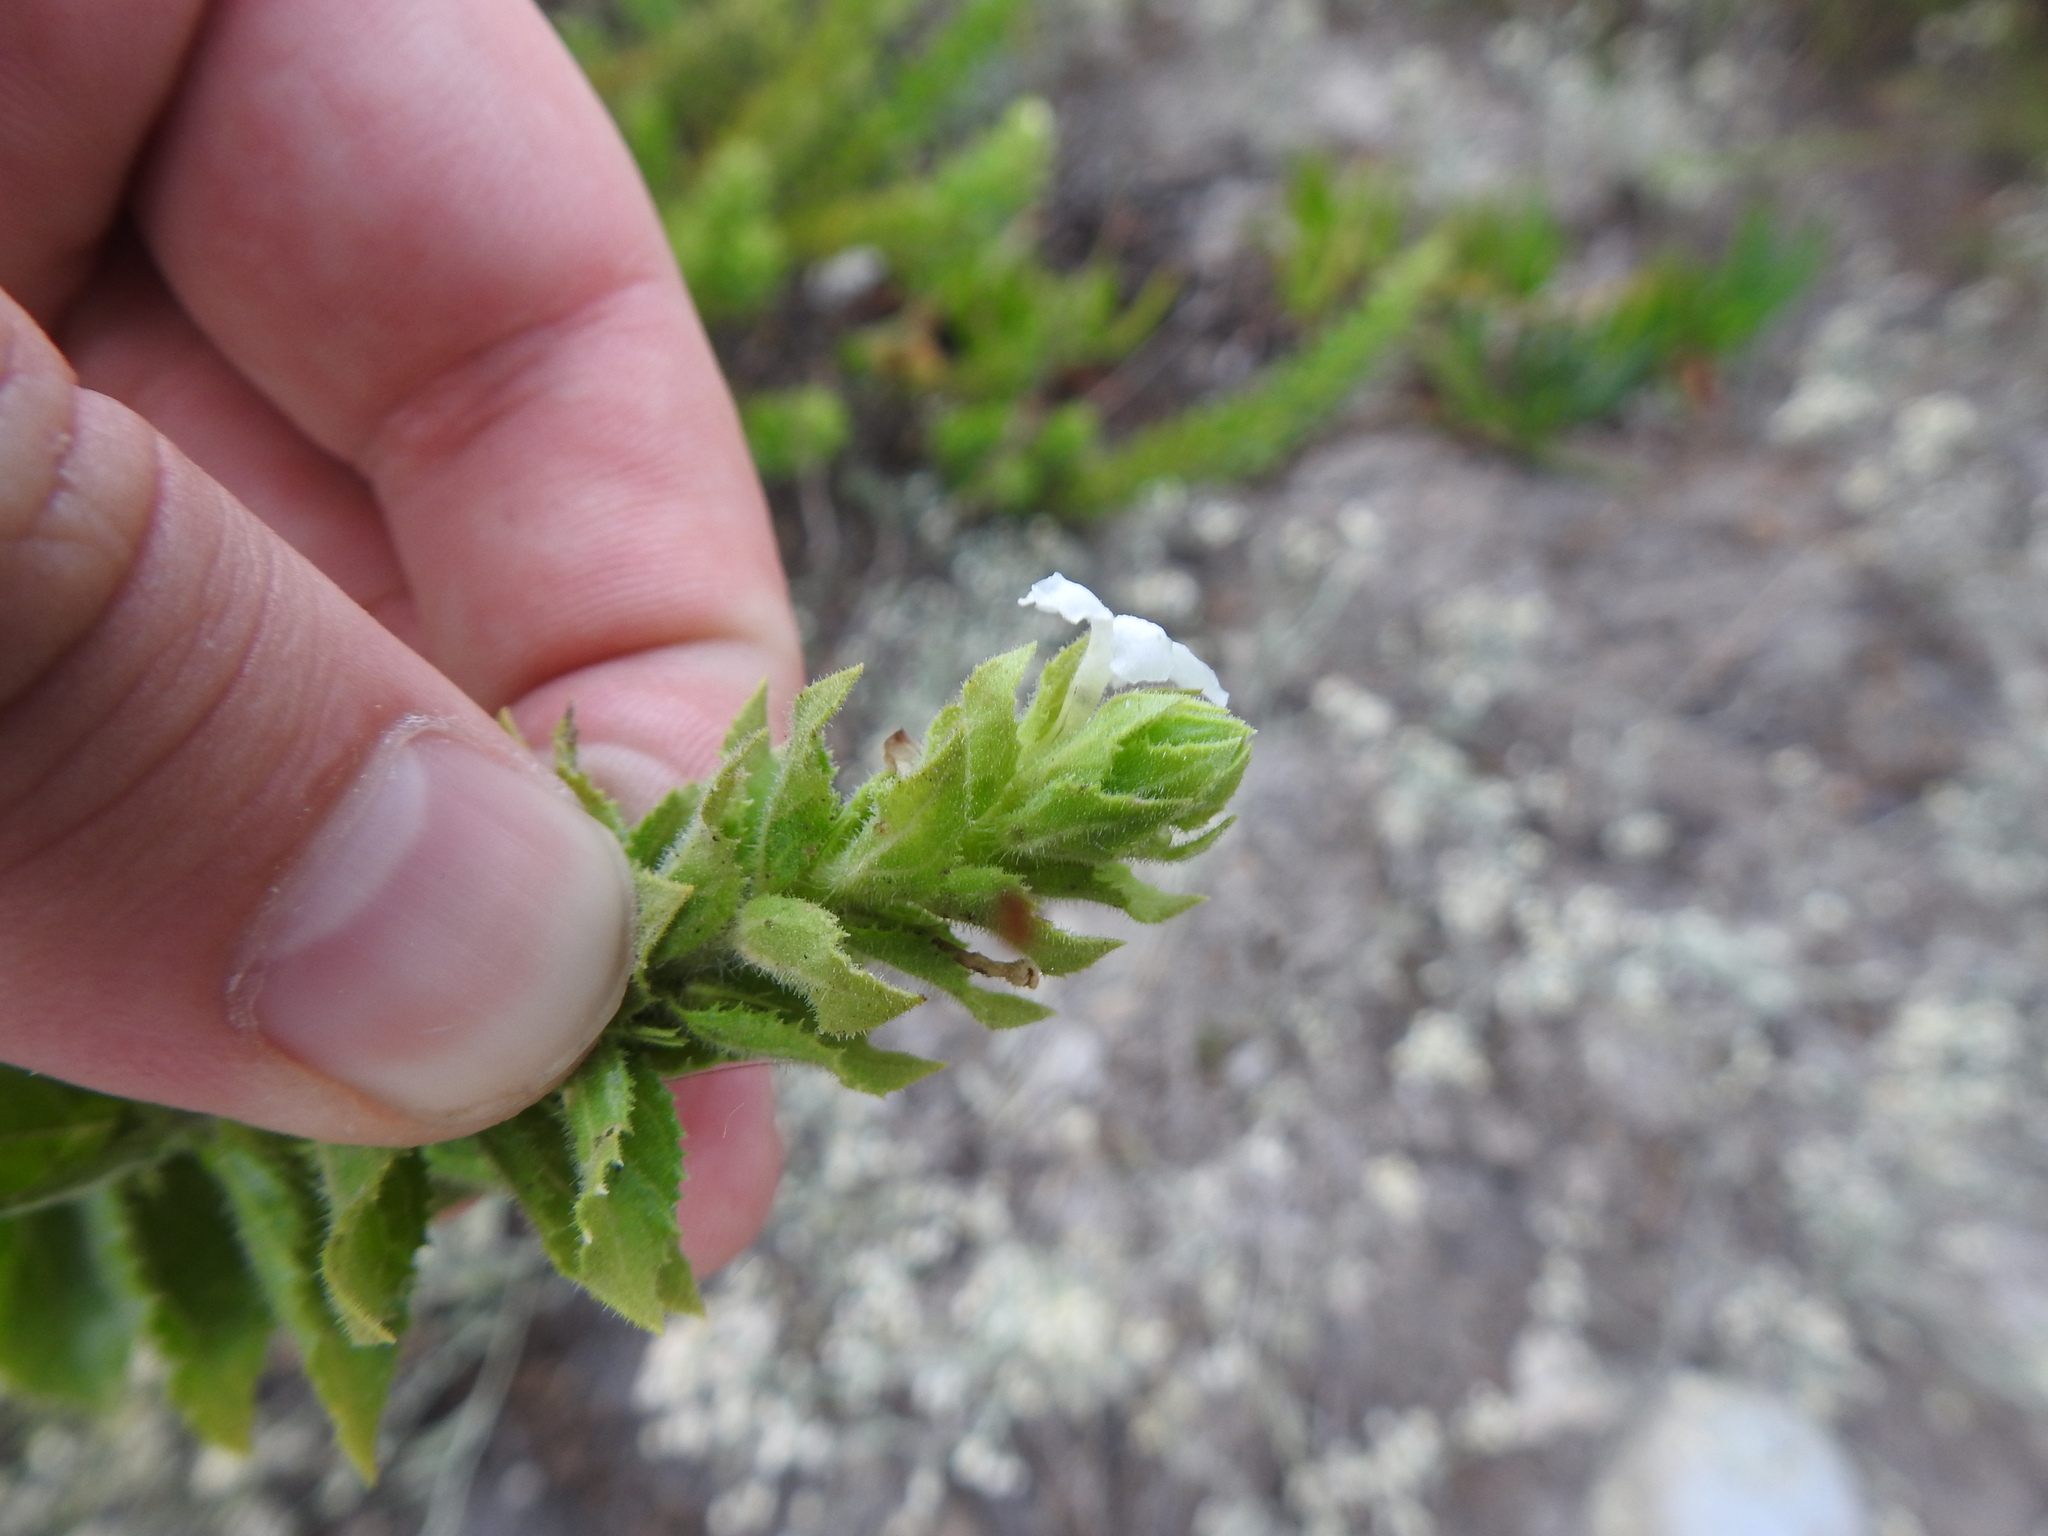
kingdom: Plantae
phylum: Tracheophyta
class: Magnoliopsida
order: Lamiales
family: Scrophulariaceae
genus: Oftia
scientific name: Oftia africana
